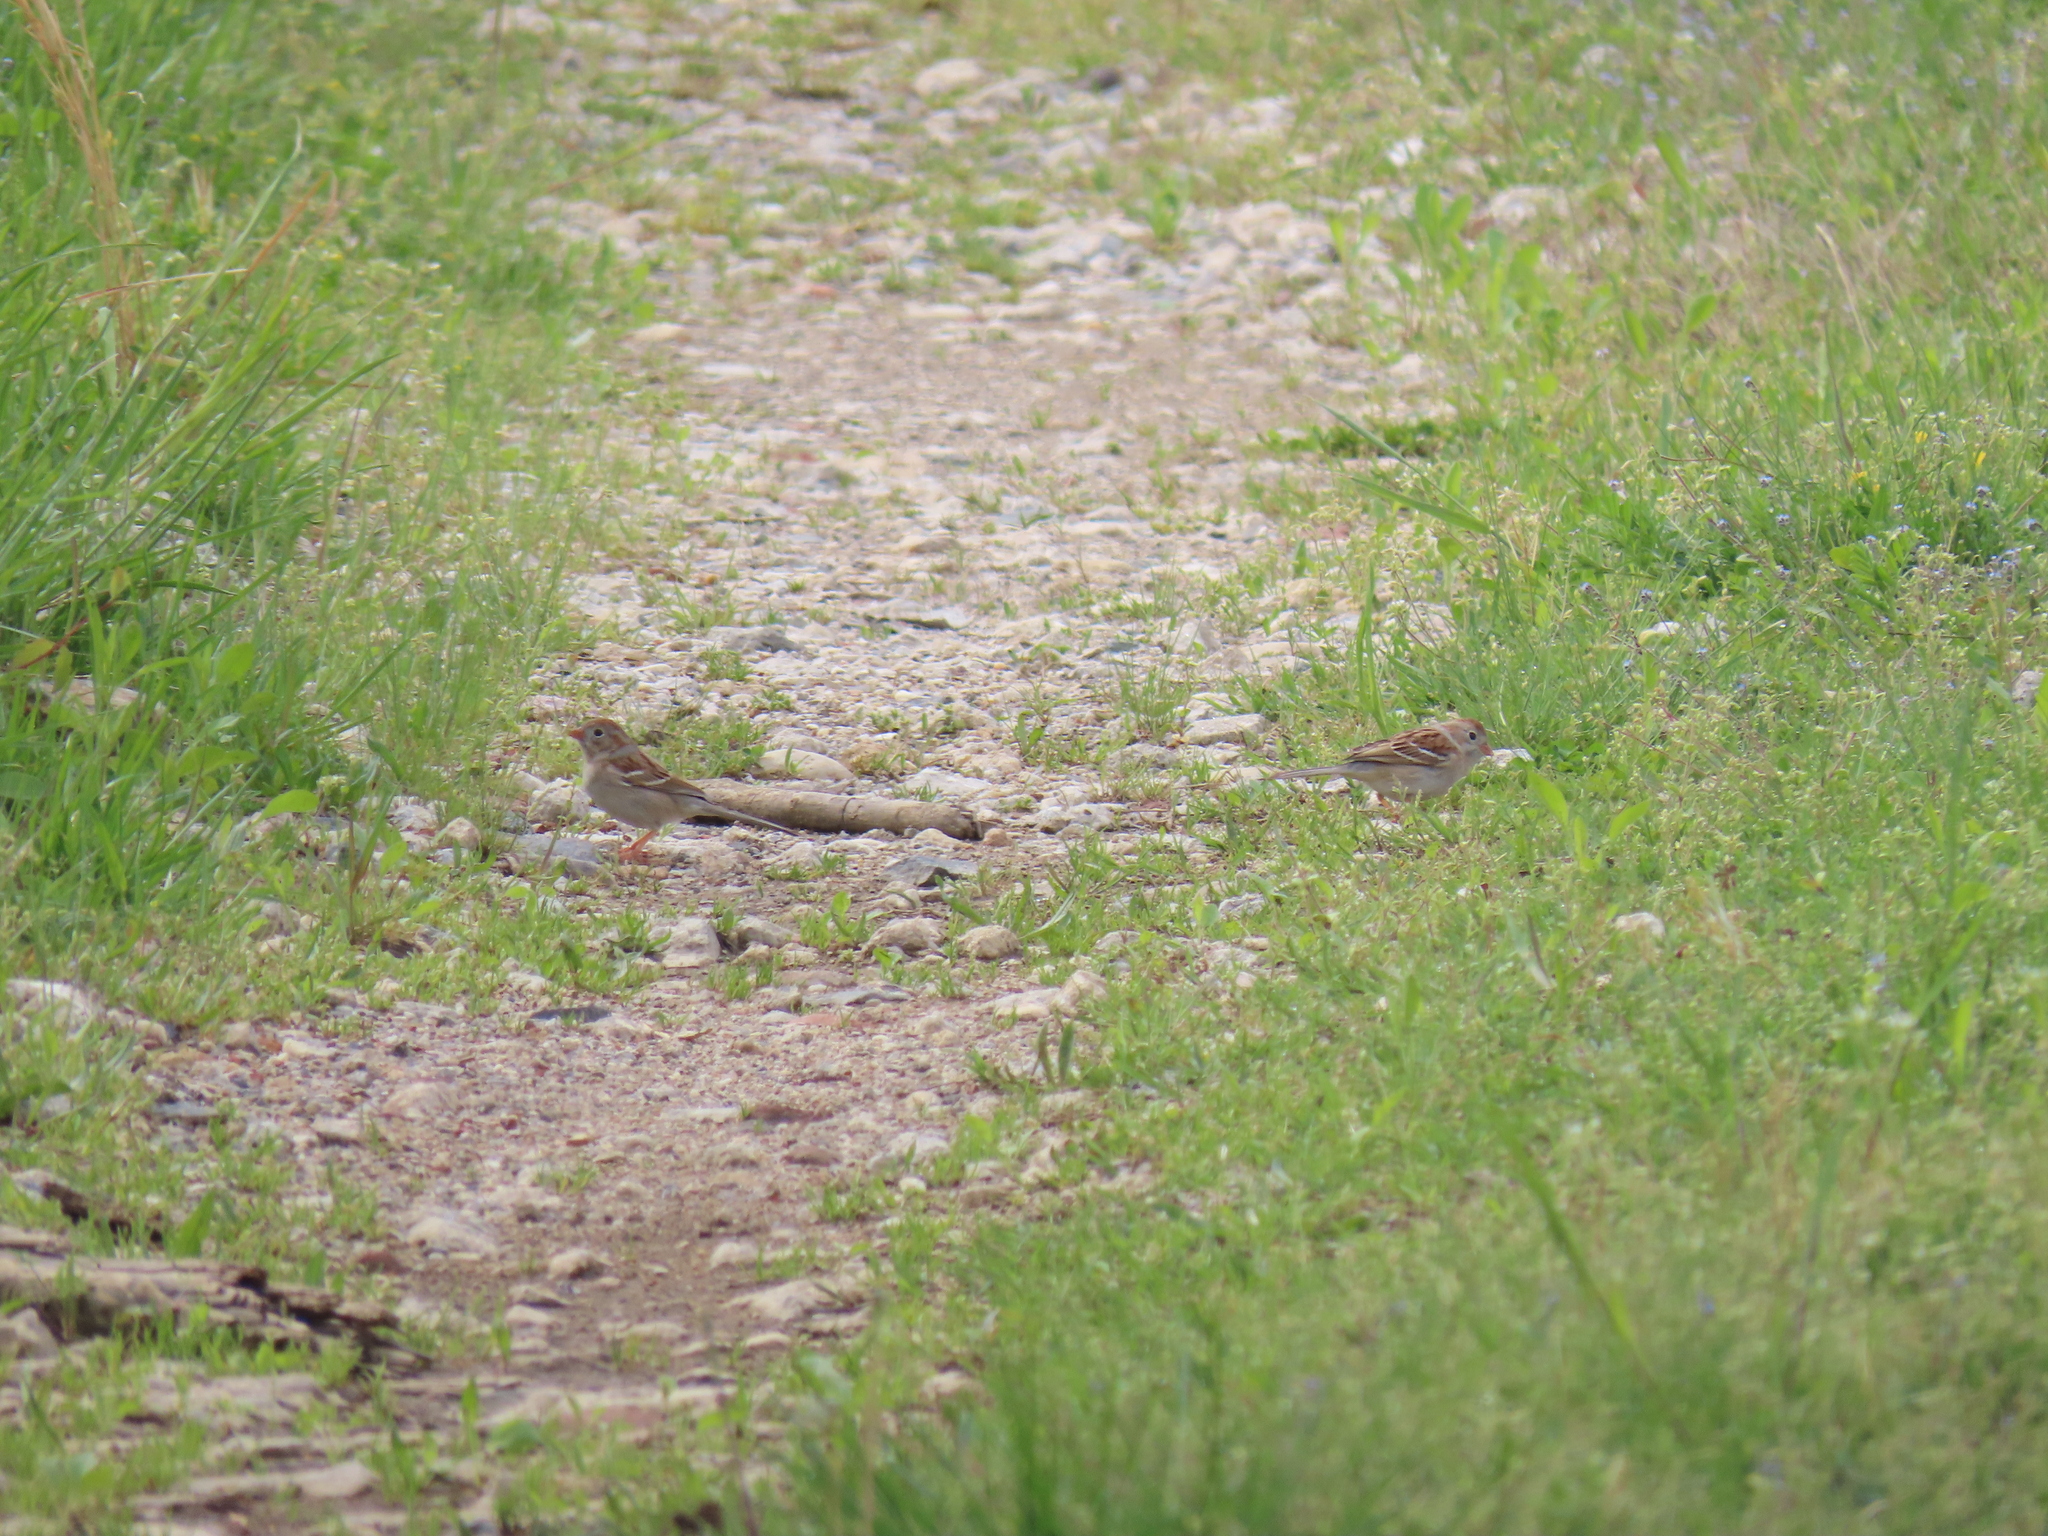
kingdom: Animalia
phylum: Chordata
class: Aves
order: Passeriformes
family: Passerellidae
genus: Spizella
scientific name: Spizella pusilla
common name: Field sparrow
